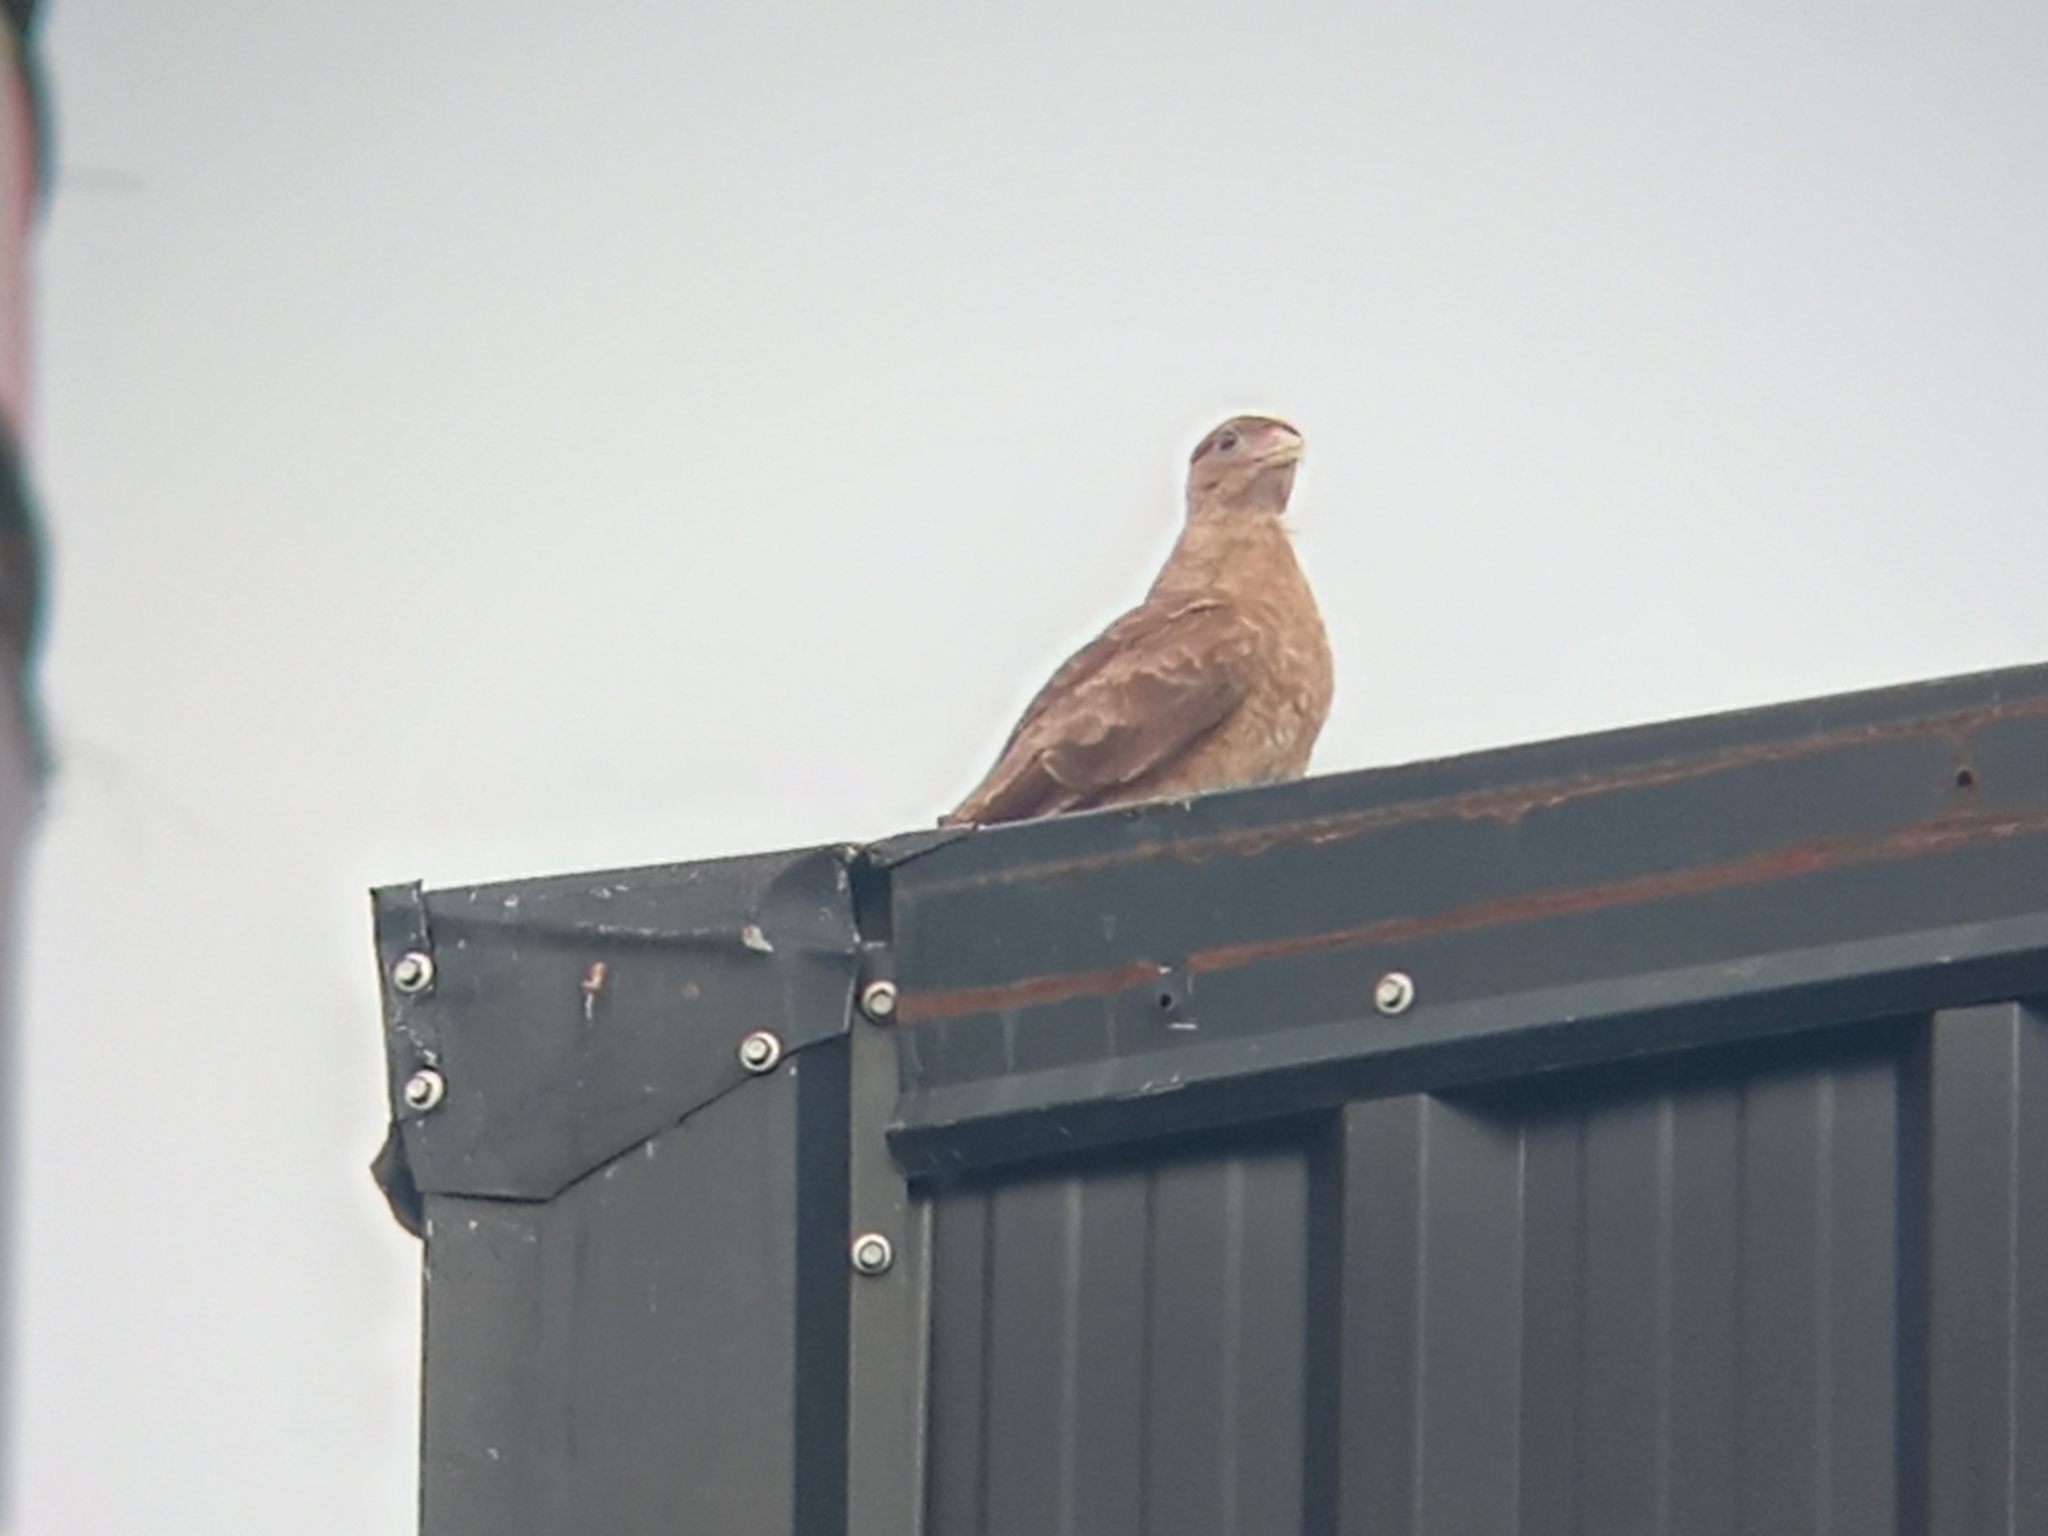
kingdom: Animalia
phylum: Chordata
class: Aves
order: Falconiformes
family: Falconidae
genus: Daptrius
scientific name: Daptrius
